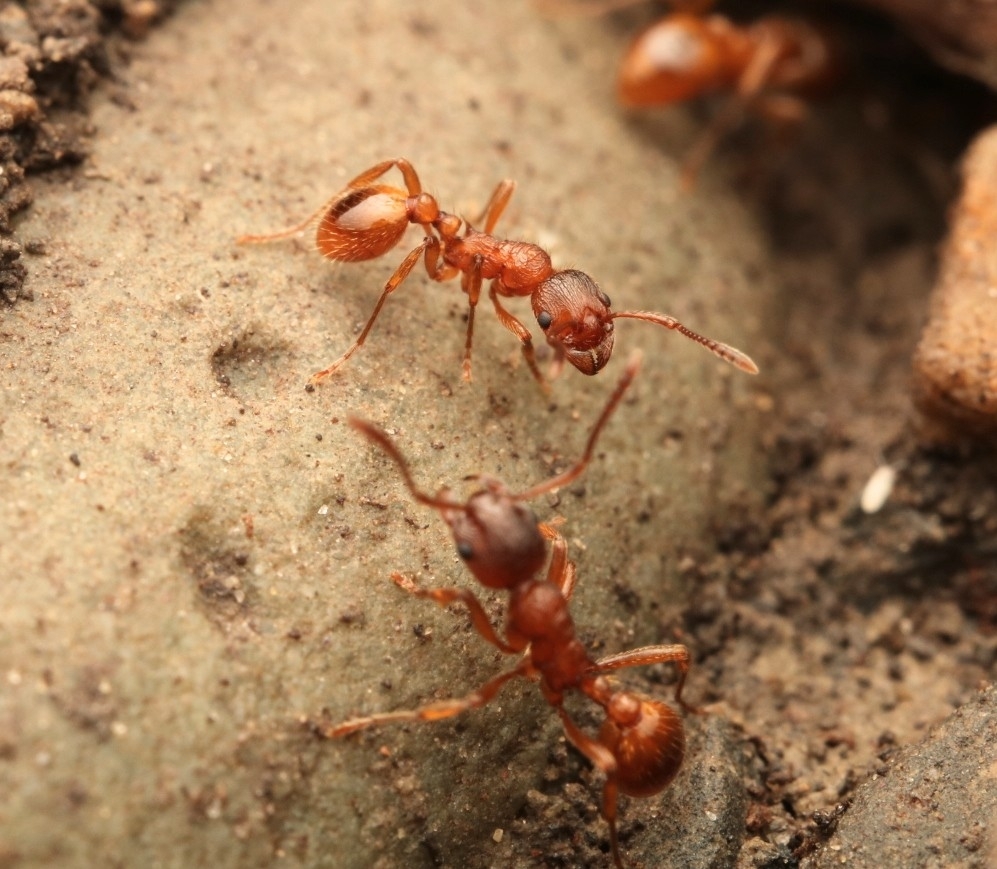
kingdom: Animalia
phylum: Arthropoda
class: Insecta
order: Hymenoptera
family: Formicidae
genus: Myrmica
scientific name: Myrmica rubra
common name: European fire ant
